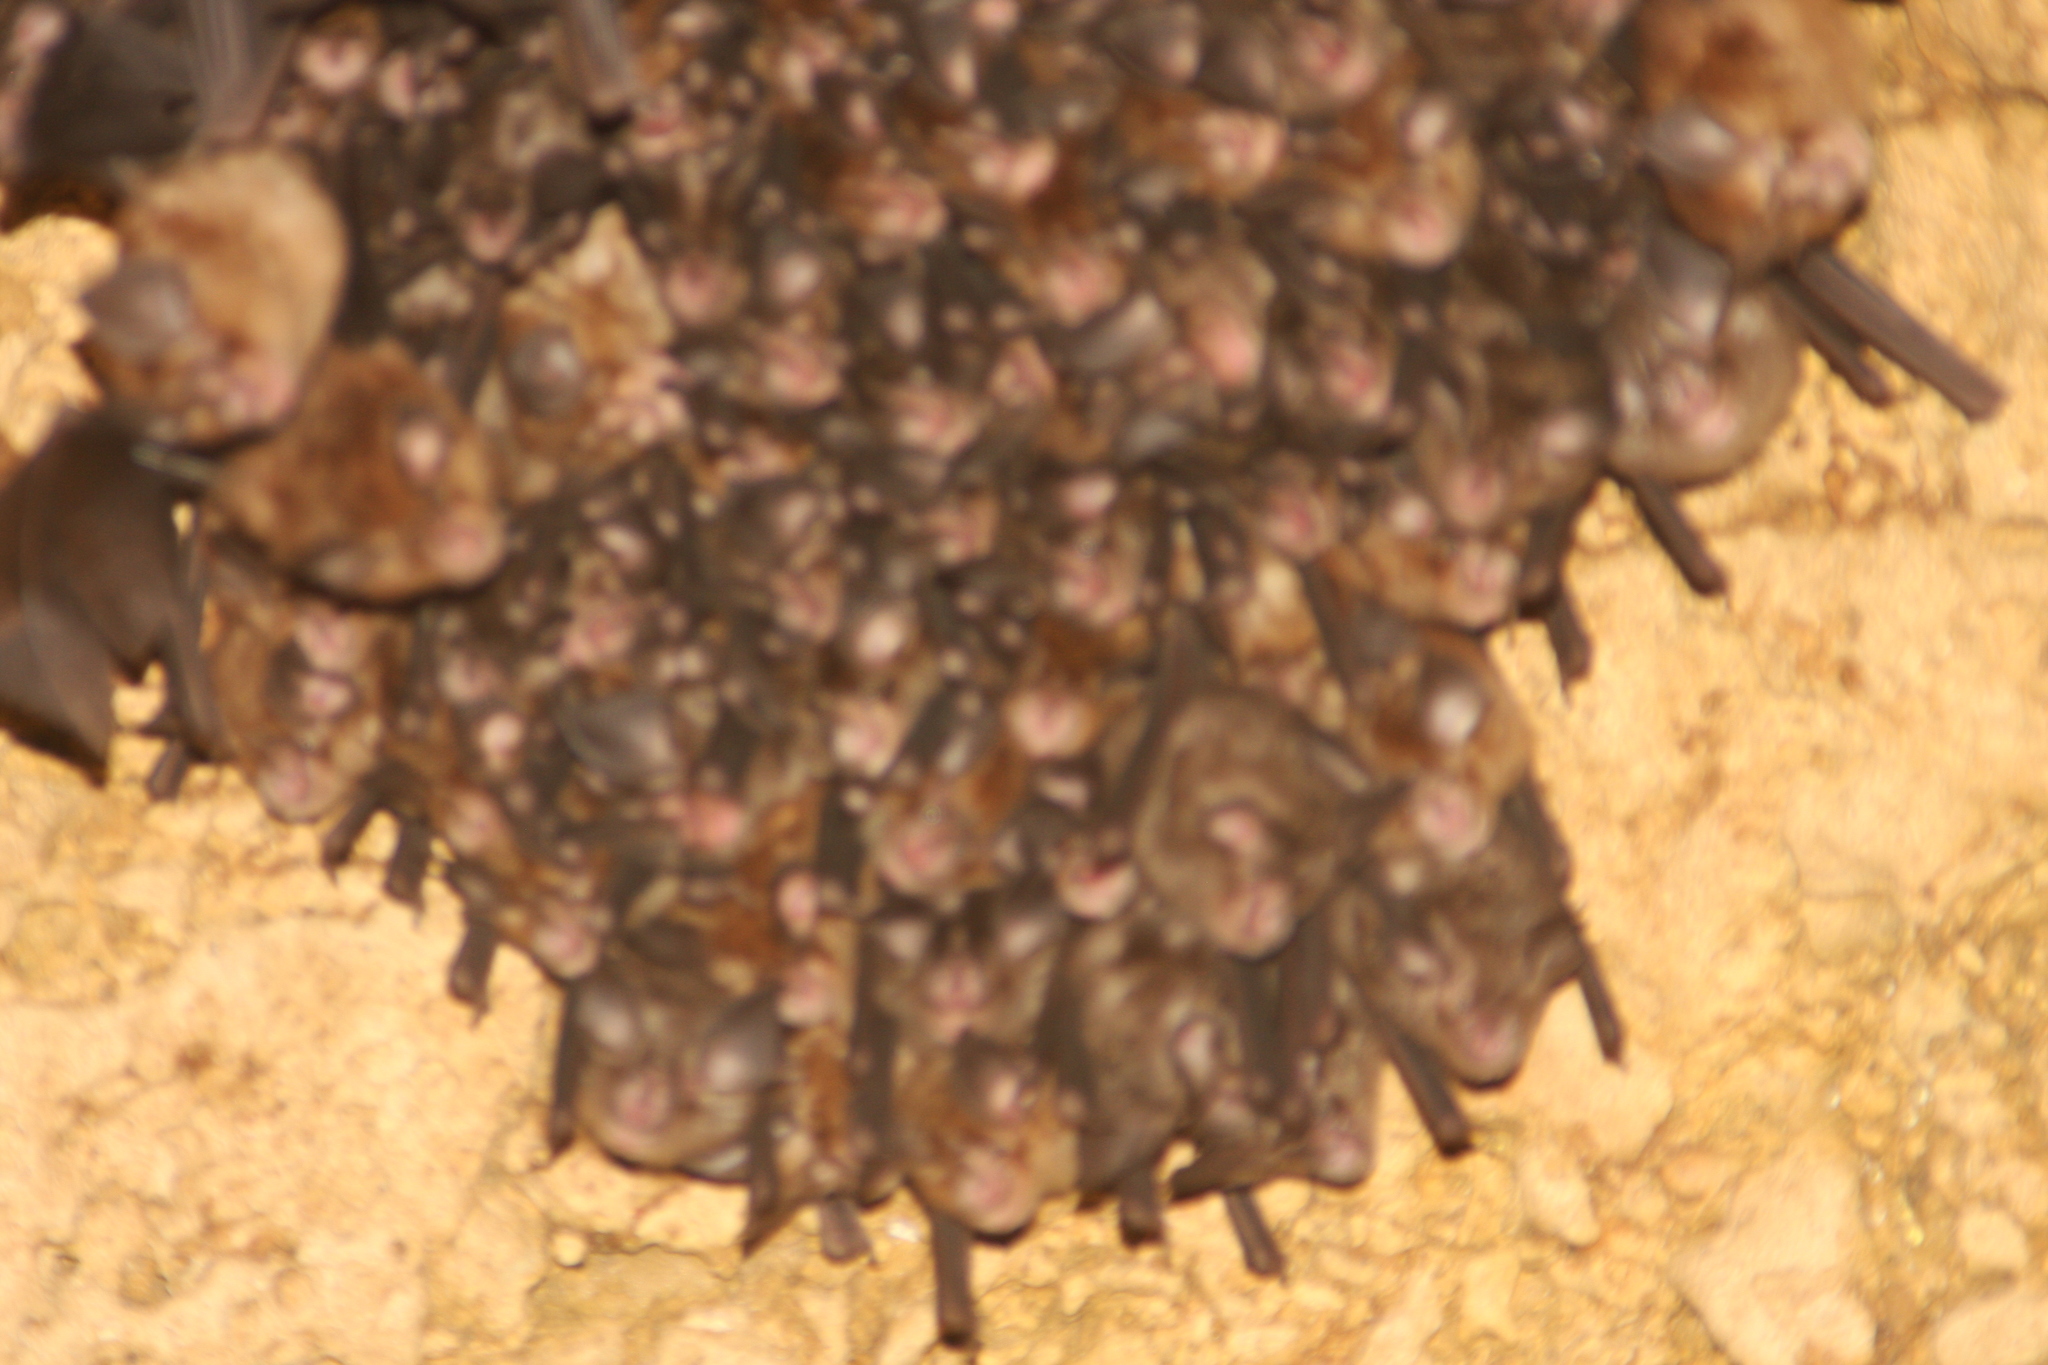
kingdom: Animalia
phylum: Chordata
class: Mammalia
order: Chiroptera
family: Rhinolophidae
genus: Rhinolophus
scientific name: Rhinolophus cornutus
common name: Little japanese horseshoe bat
